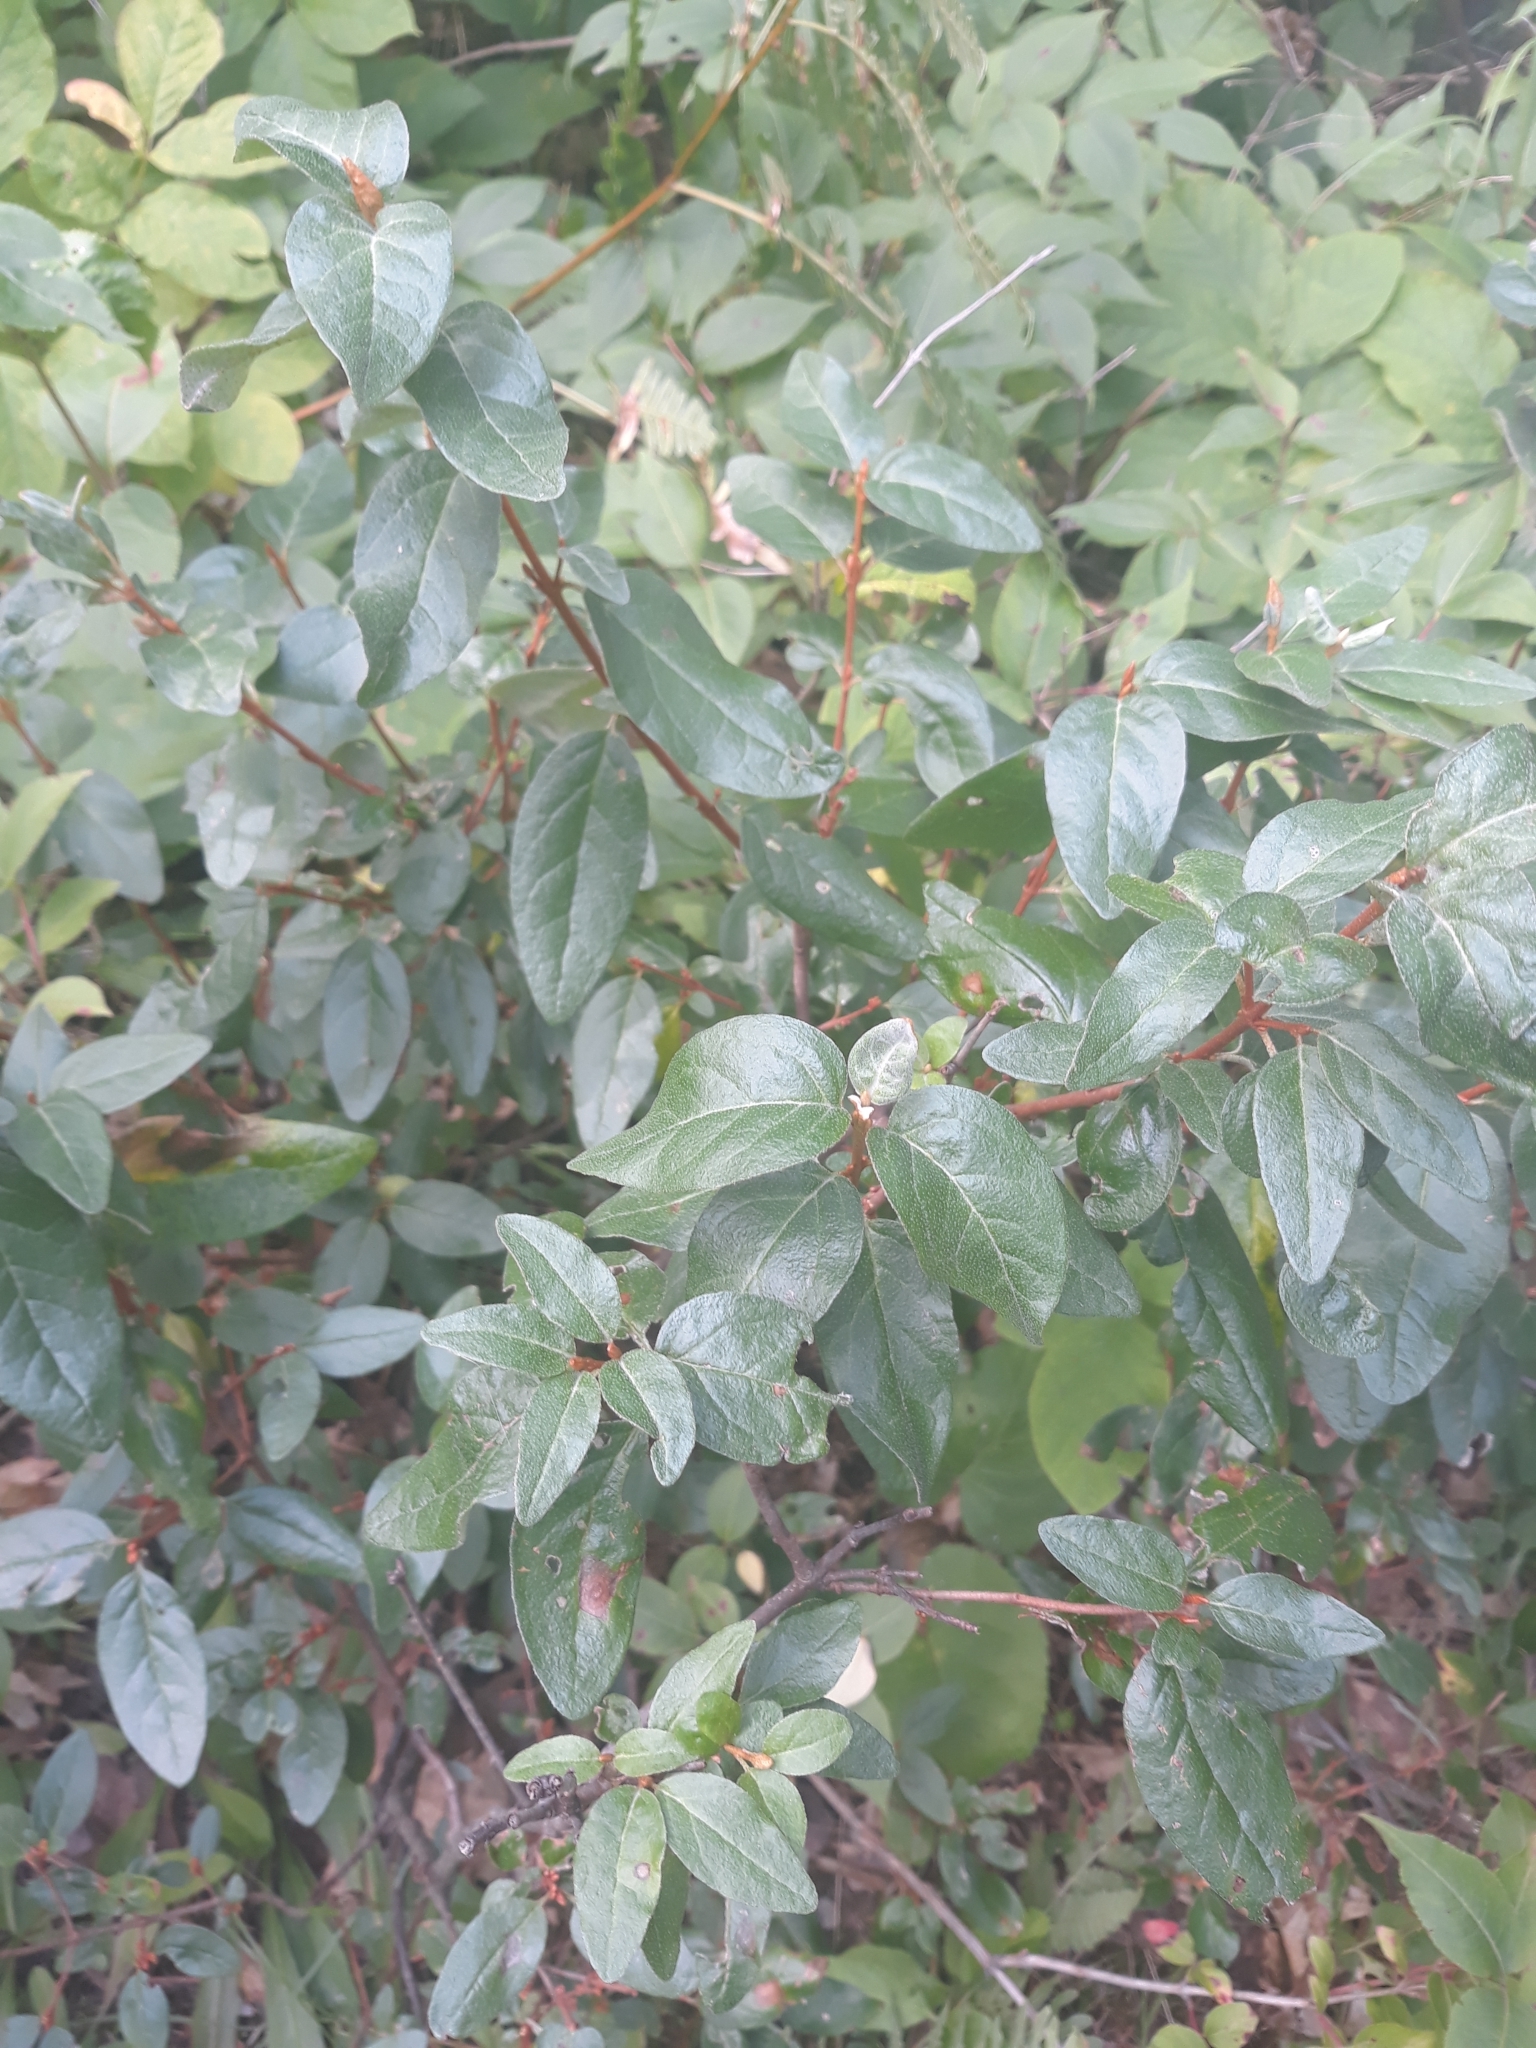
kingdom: Plantae
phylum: Tracheophyta
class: Magnoliopsida
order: Rosales
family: Elaeagnaceae
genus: Shepherdia
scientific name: Shepherdia canadensis
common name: Soapberry
